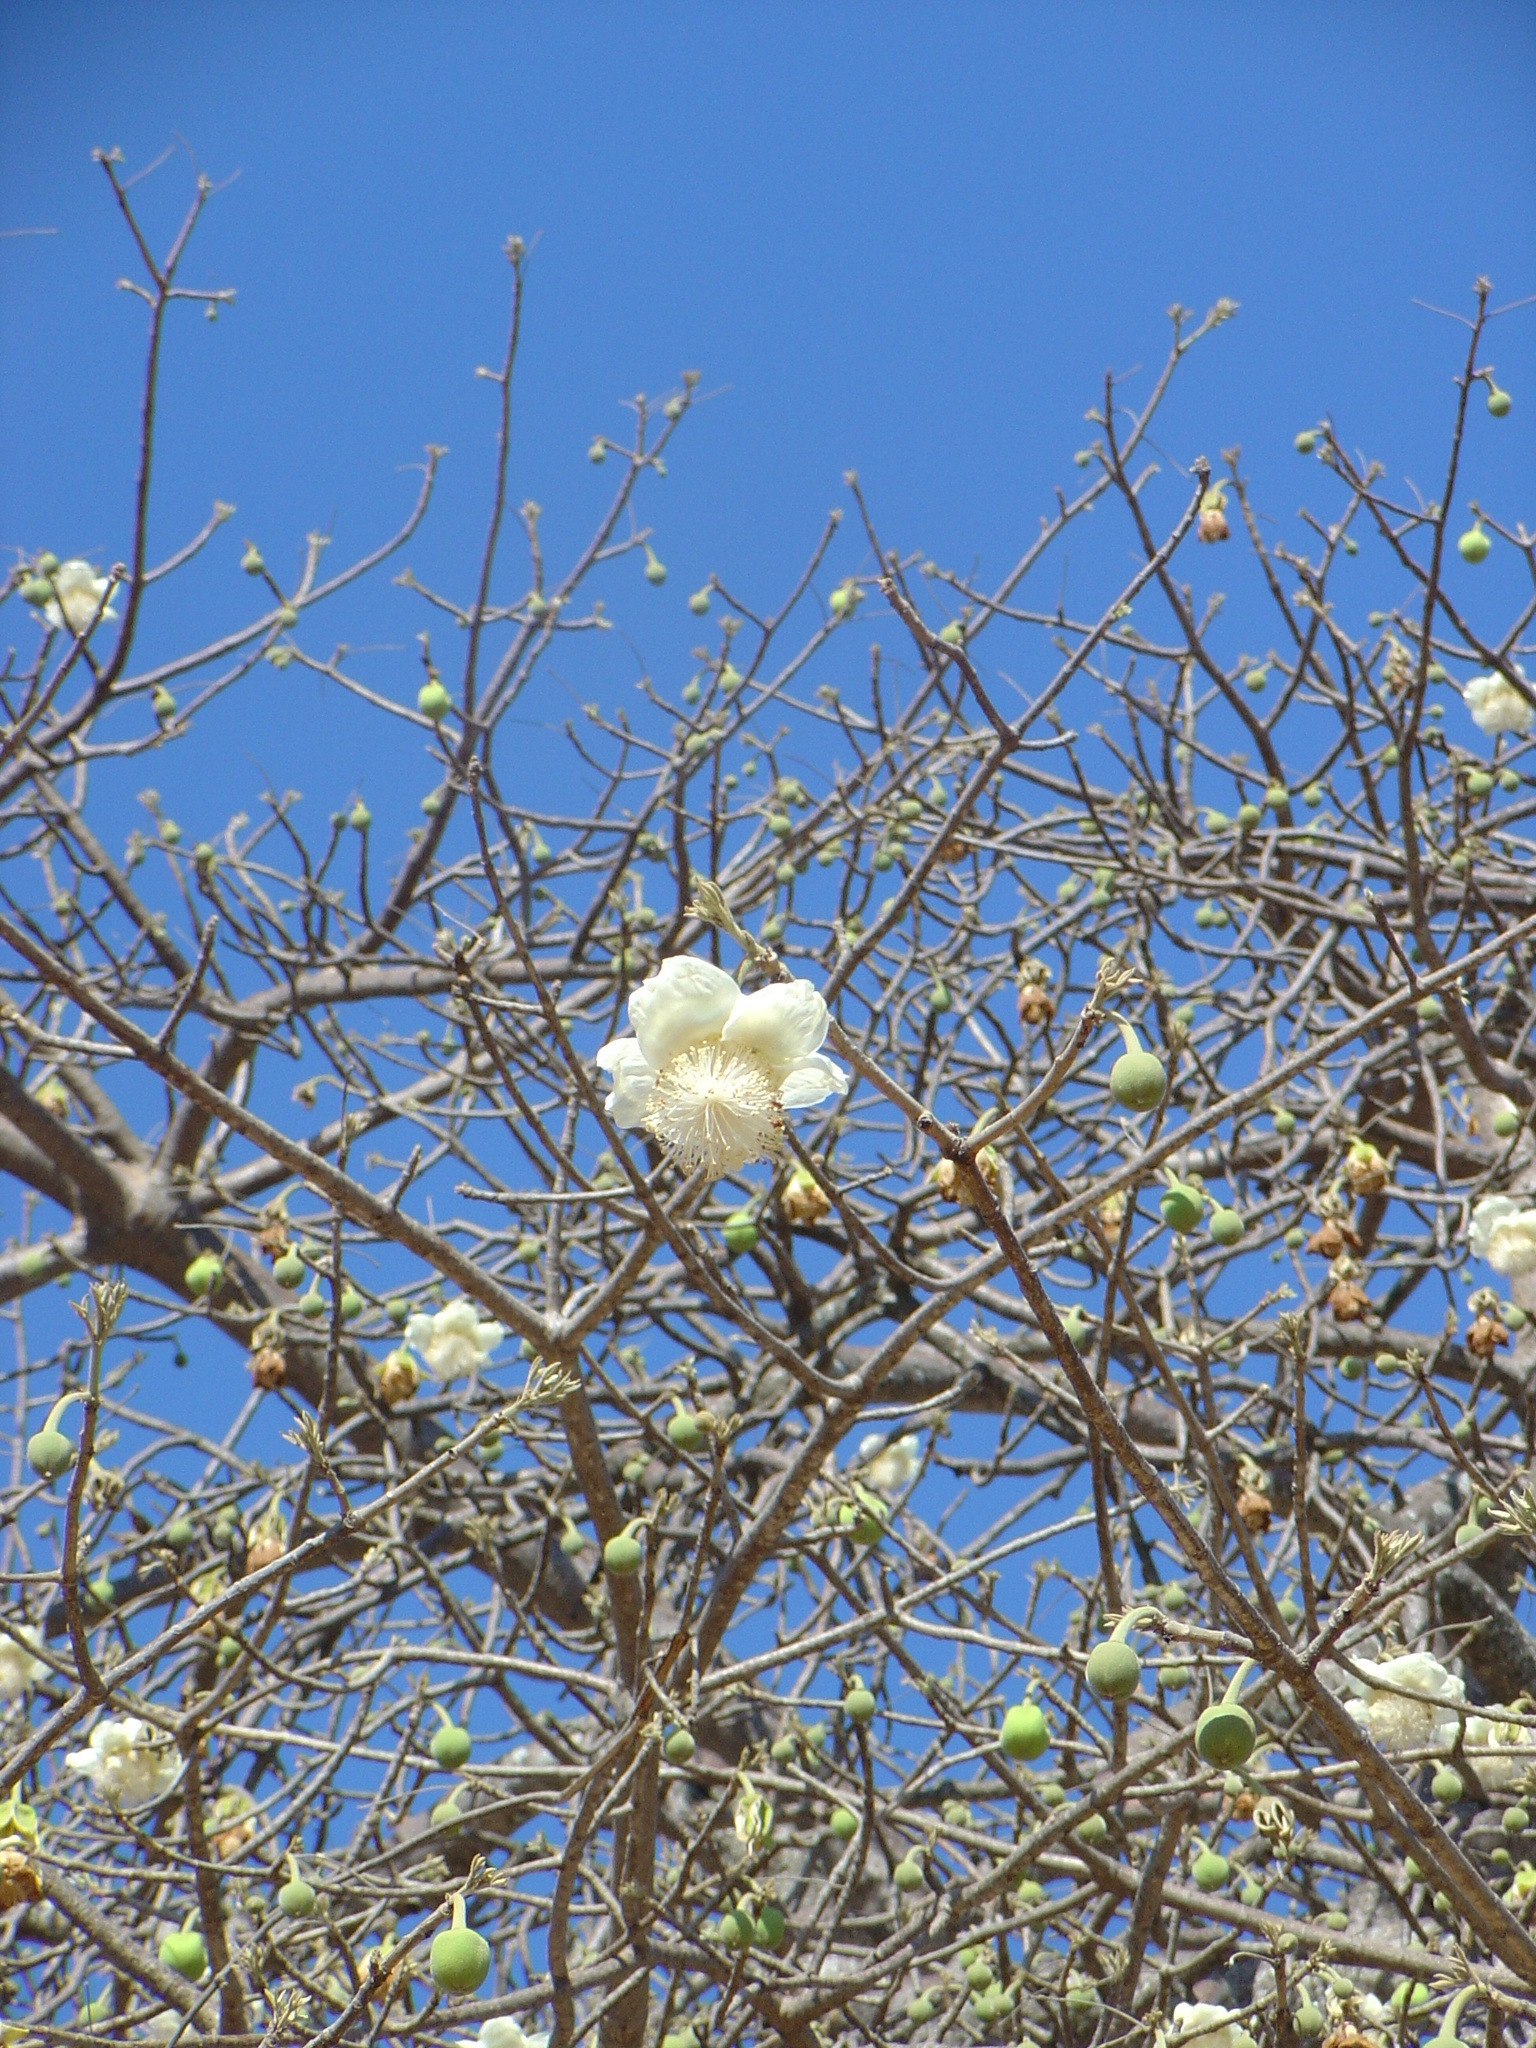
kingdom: Plantae
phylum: Tracheophyta
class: Magnoliopsida
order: Malvales
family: Malvaceae
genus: Adansonia
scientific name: Adansonia digitata
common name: Dead-rat-tree
